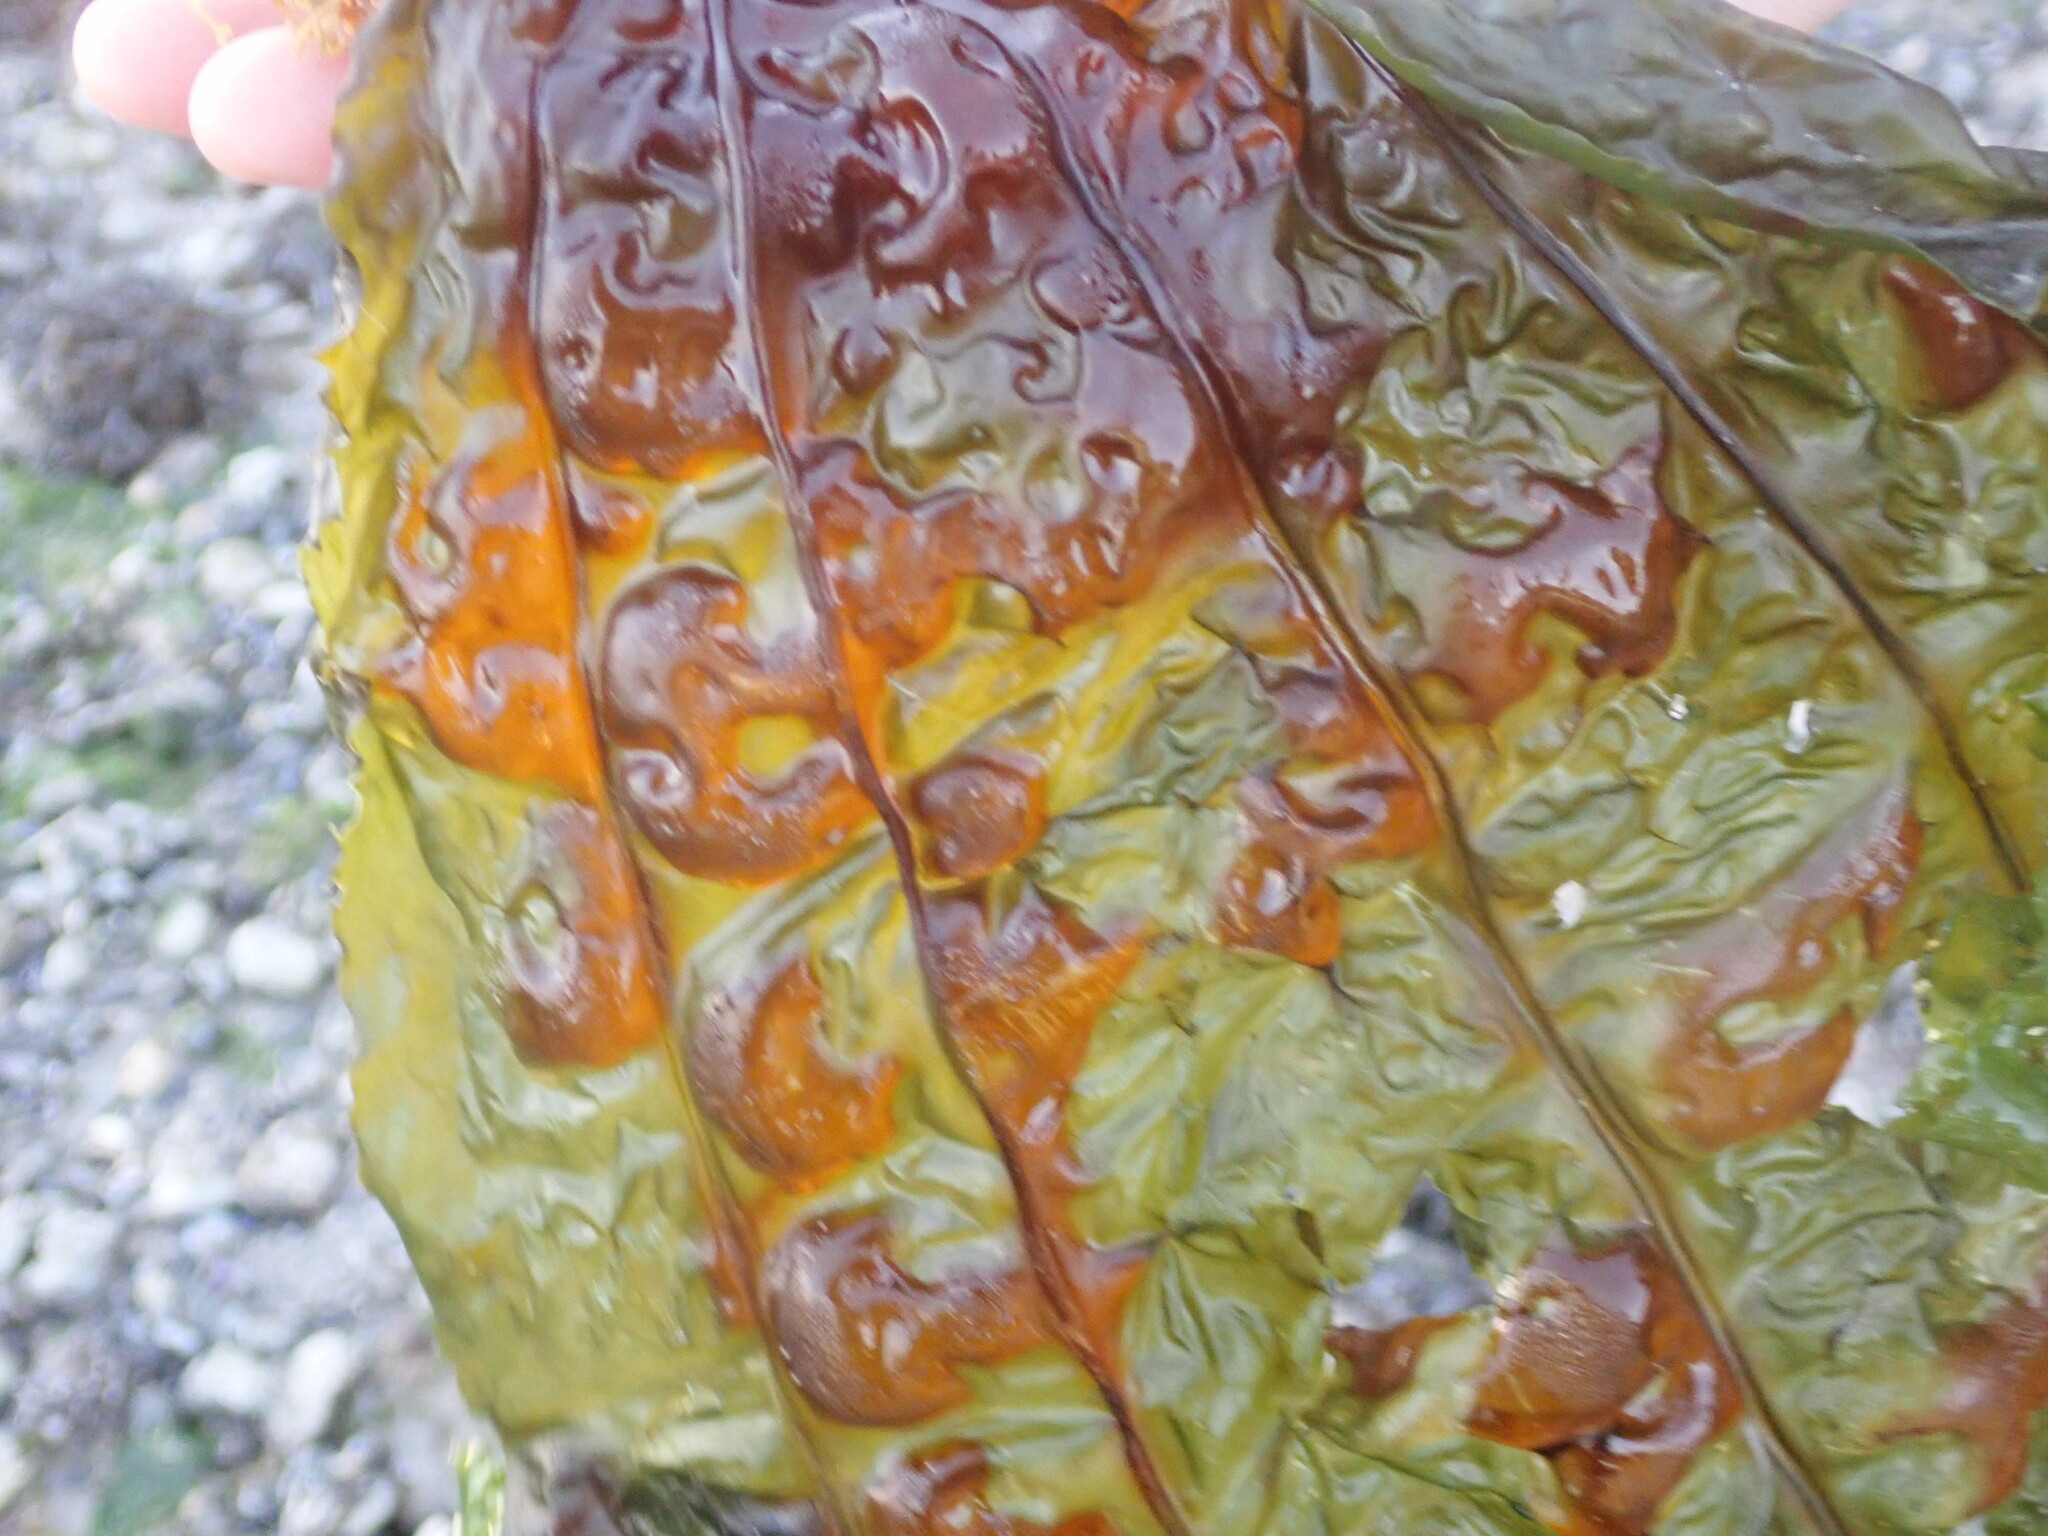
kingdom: Chromista
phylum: Ochrophyta
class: Phaeophyceae
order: Laminariales
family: Costariaceae
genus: Costaria
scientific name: Costaria costata
